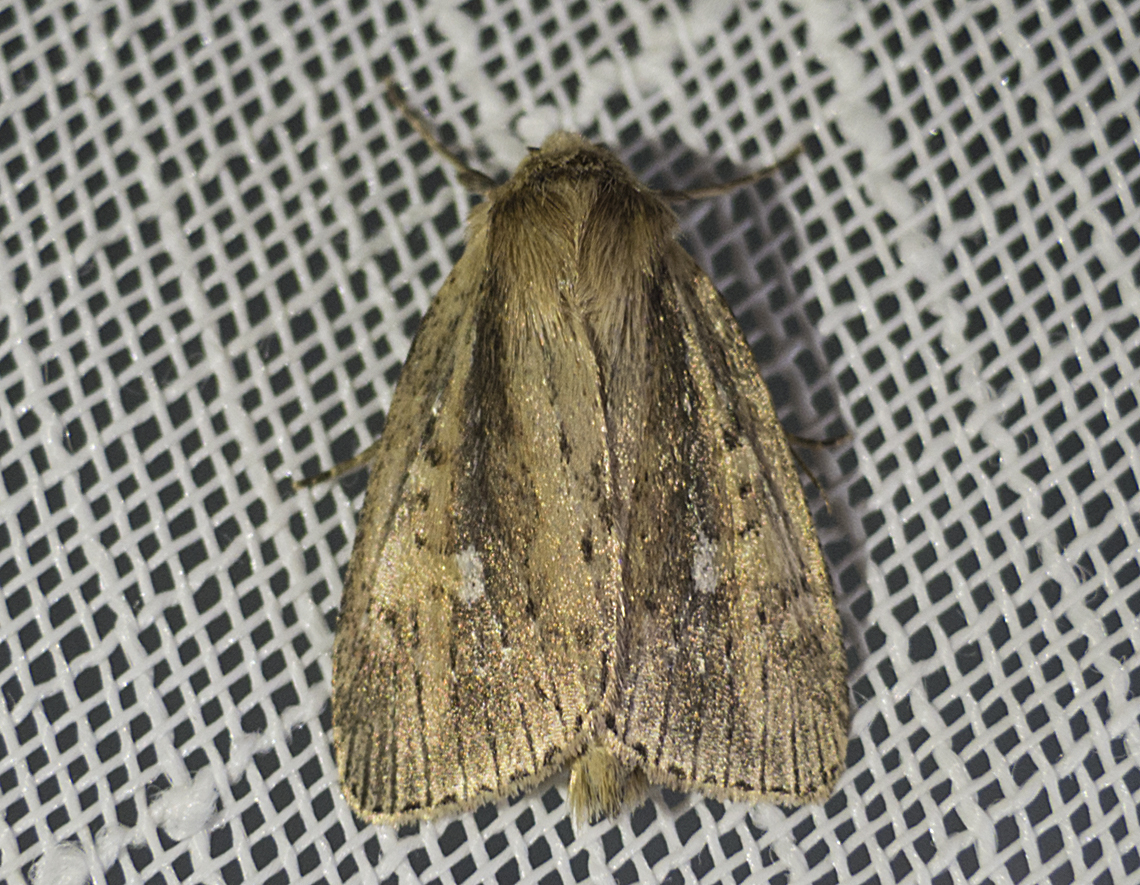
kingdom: Animalia
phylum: Arthropoda
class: Insecta
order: Lepidoptera
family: Noctuidae
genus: Archanara
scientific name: Archanara dissoluta
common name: Brown-veined wainscot
